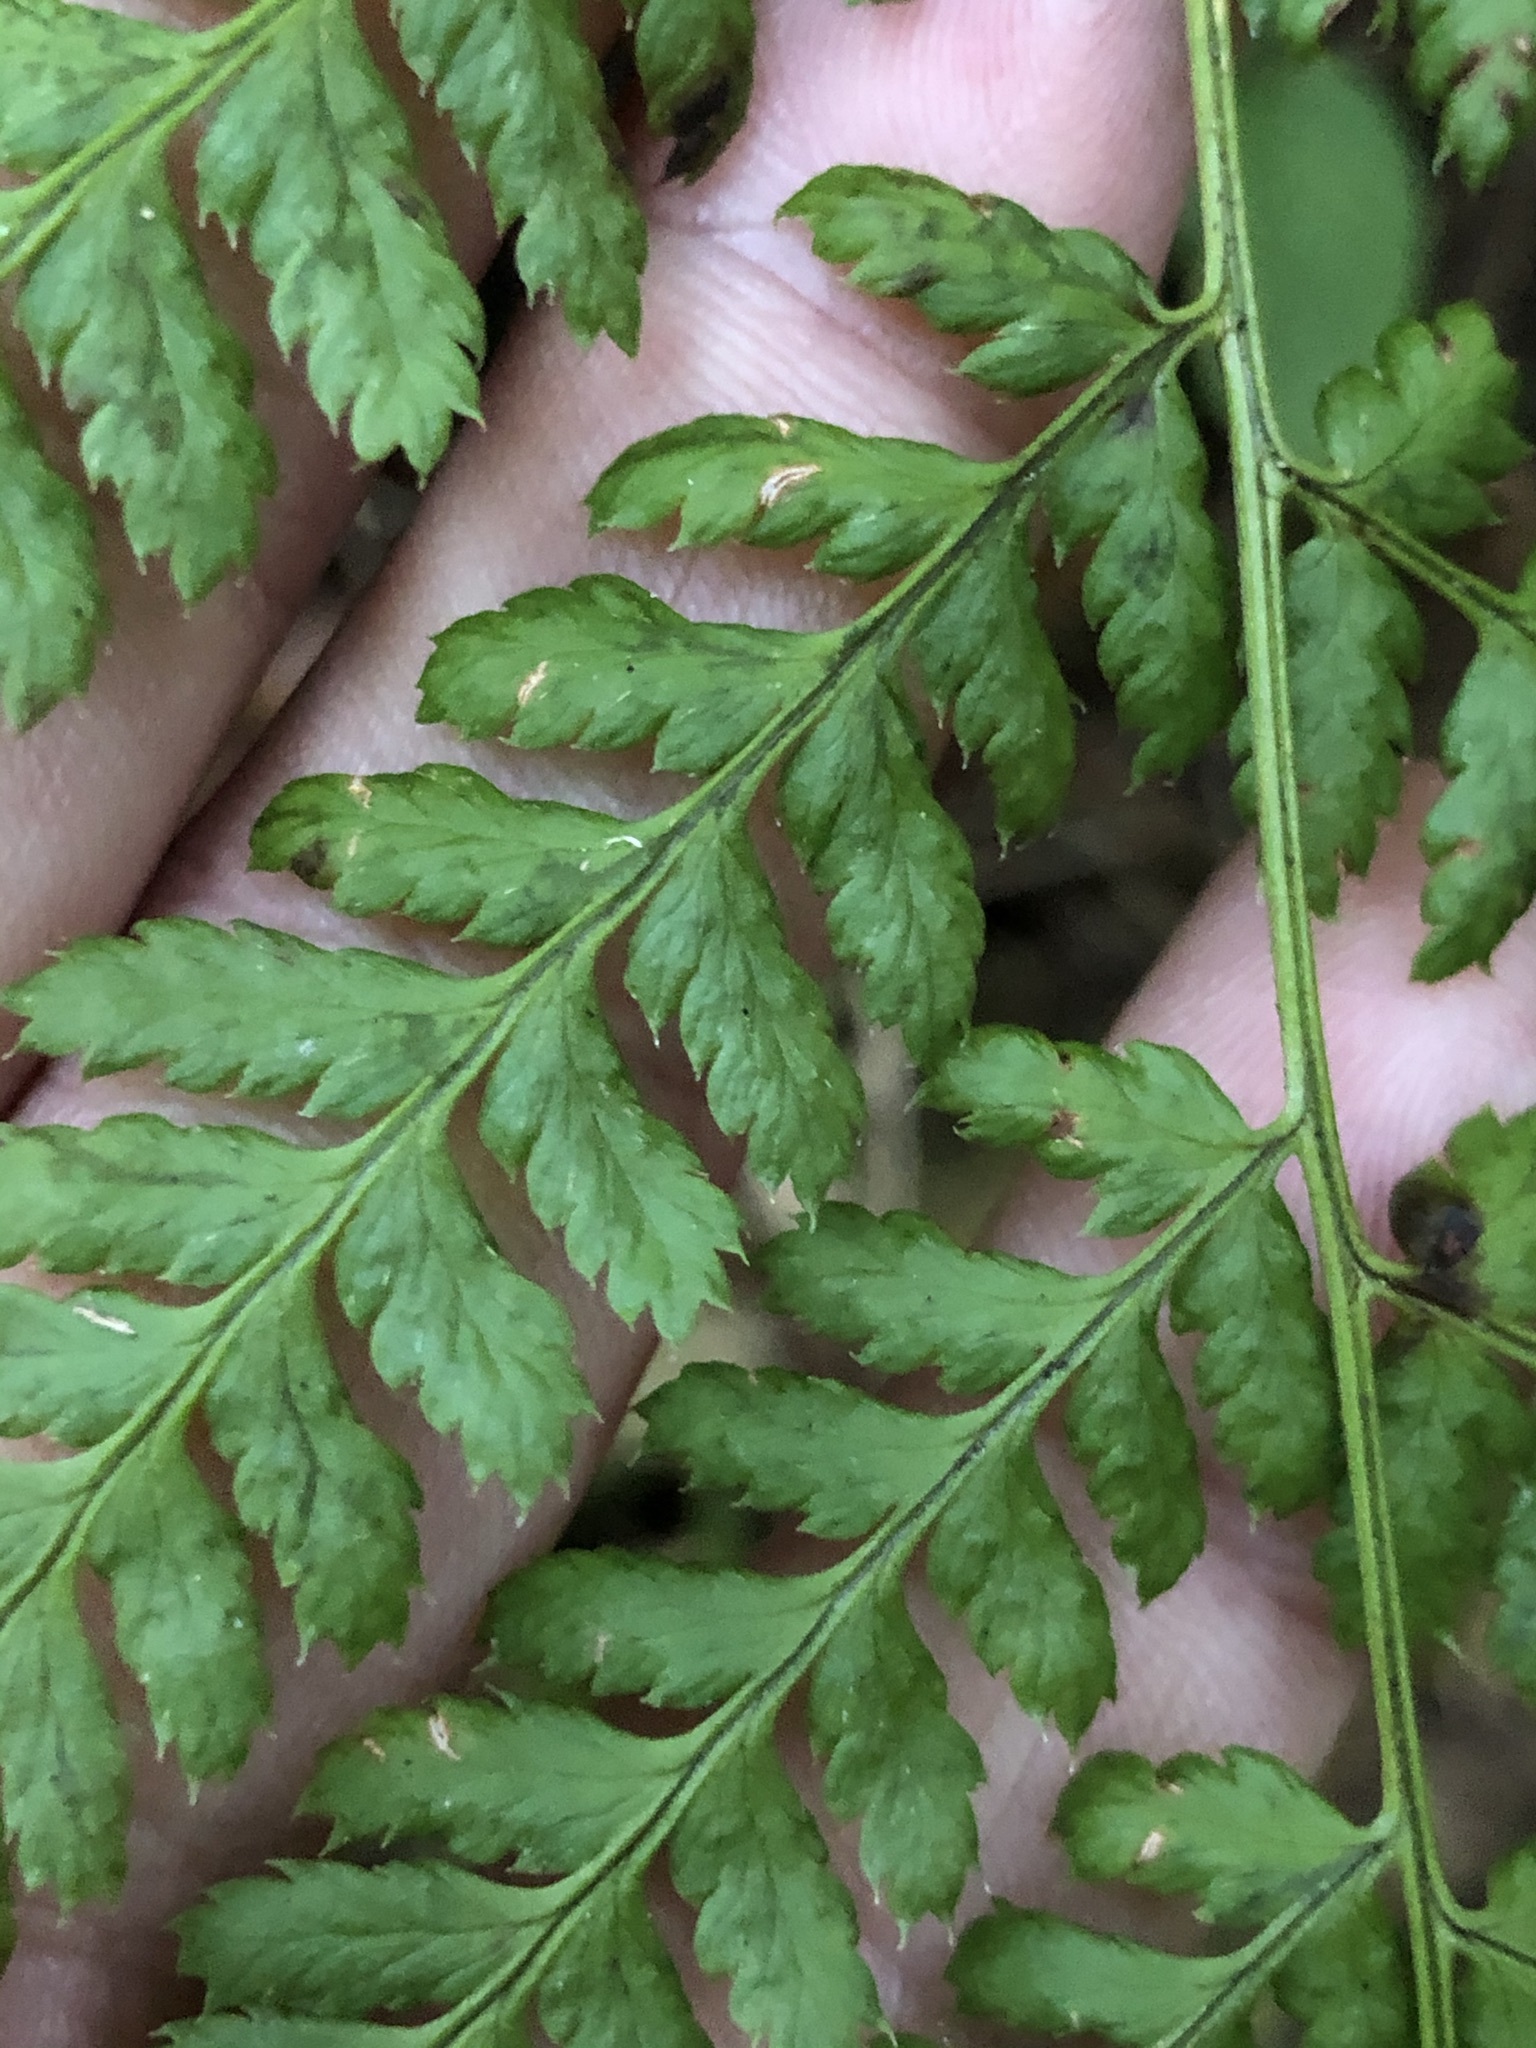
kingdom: Plantae
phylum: Tracheophyta
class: Polypodiopsida
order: Polypodiales
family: Dryopteridaceae
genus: Dryopteris
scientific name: Dryopteris dilatata
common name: Broad buckler-fern
